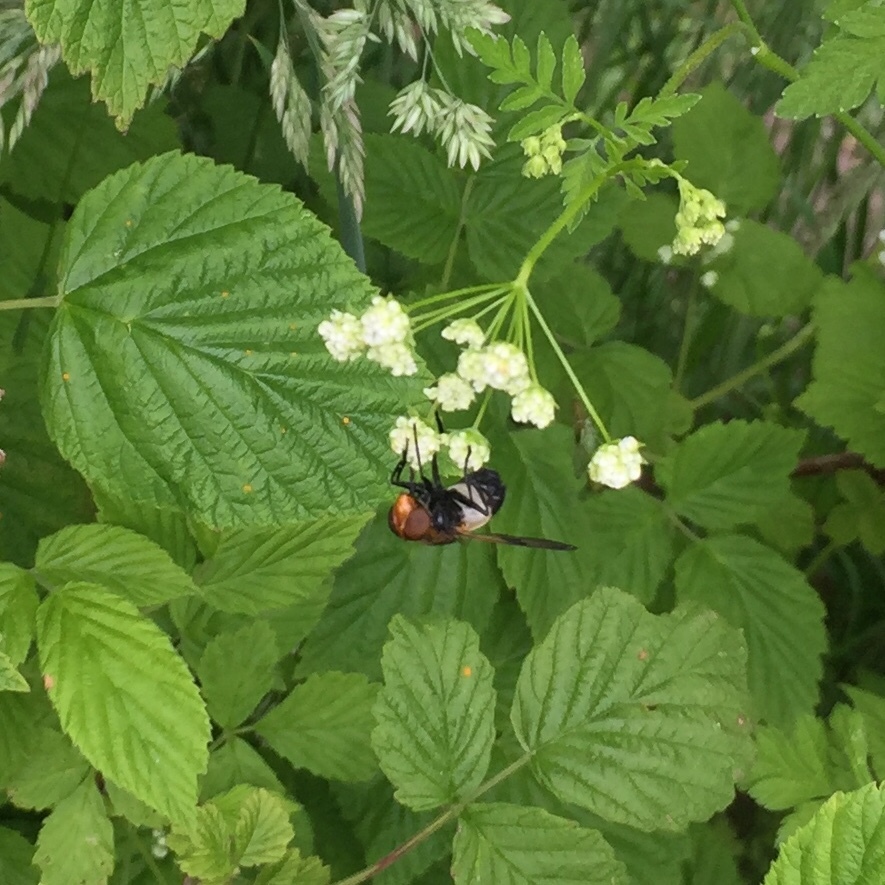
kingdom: Animalia
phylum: Arthropoda
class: Insecta
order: Diptera
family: Syrphidae
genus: Volucella
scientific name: Volucella pellucens
